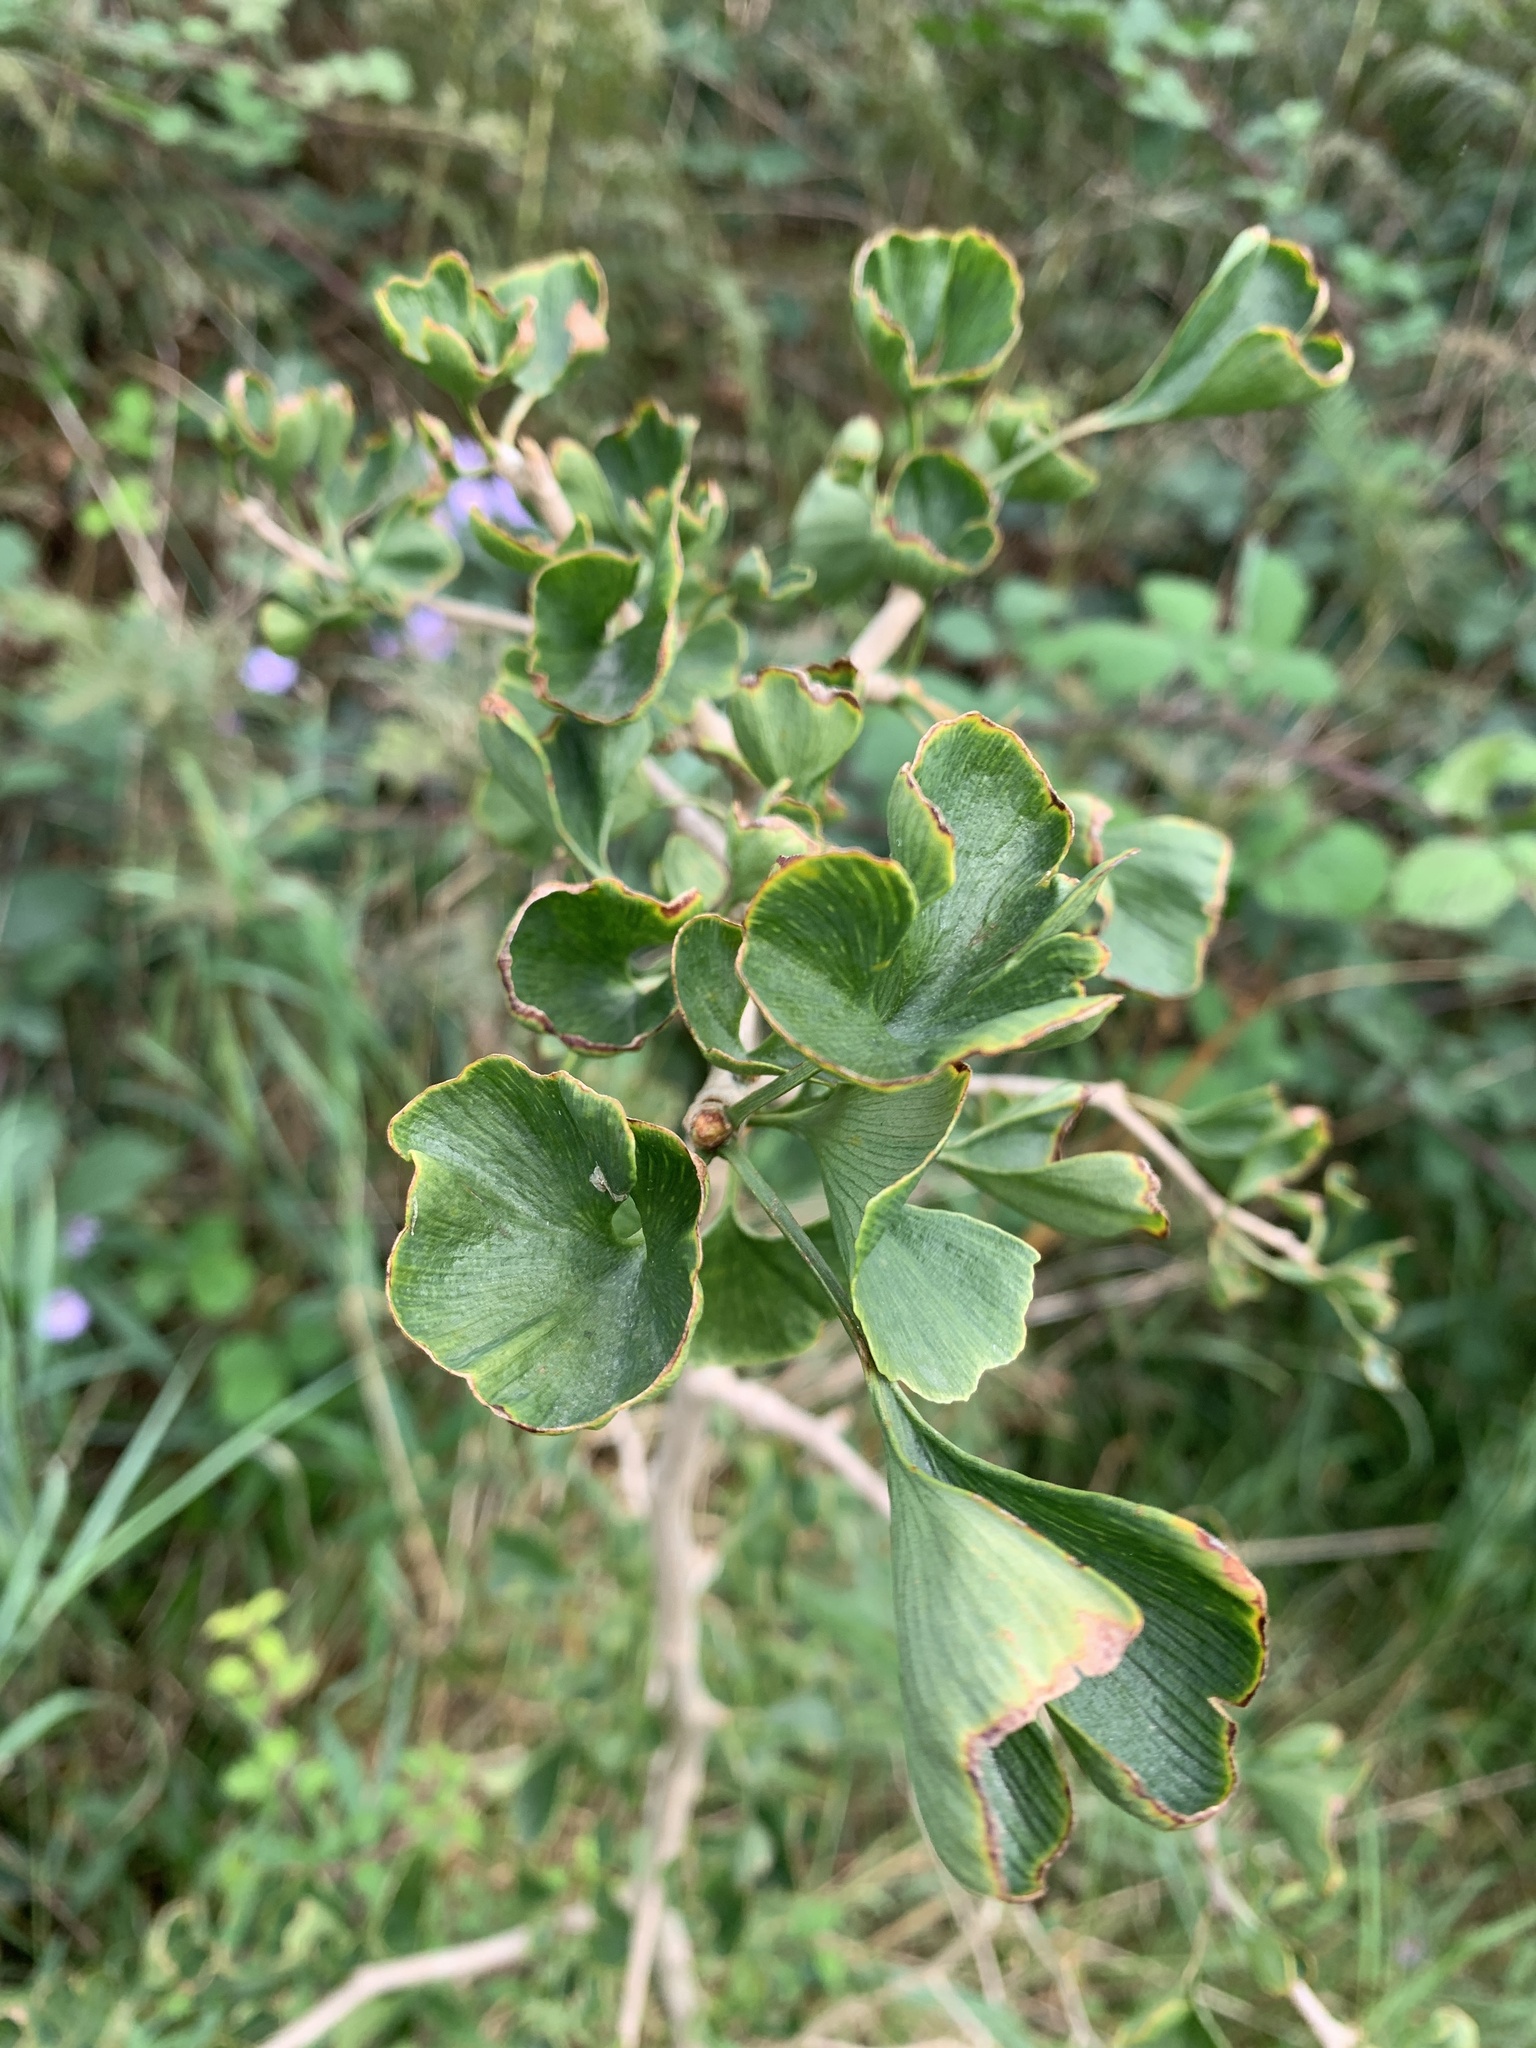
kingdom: Plantae
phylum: Tracheophyta
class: Ginkgoopsida
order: Ginkgoales
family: Ginkgoaceae
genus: Ginkgo
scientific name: Ginkgo biloba
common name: Ginkgo
